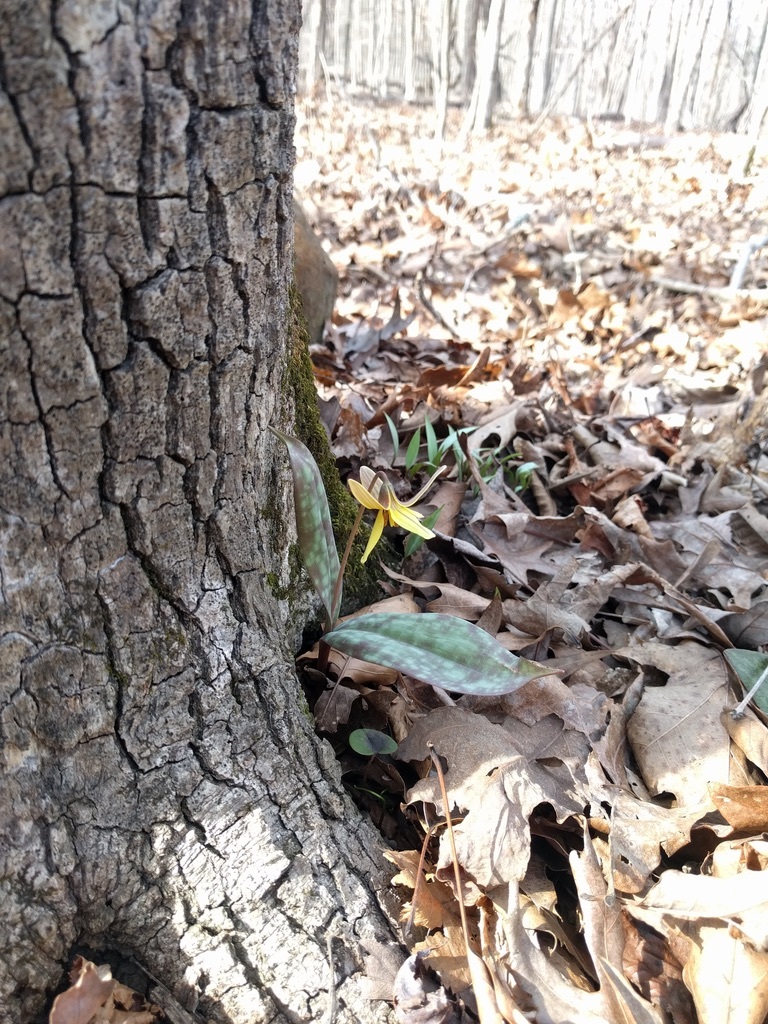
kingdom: Plantae
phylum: Tracheophyta
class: Liliopsida
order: Liliales
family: Liliaceae
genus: Erythronium
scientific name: Erythronium umbilicatum
